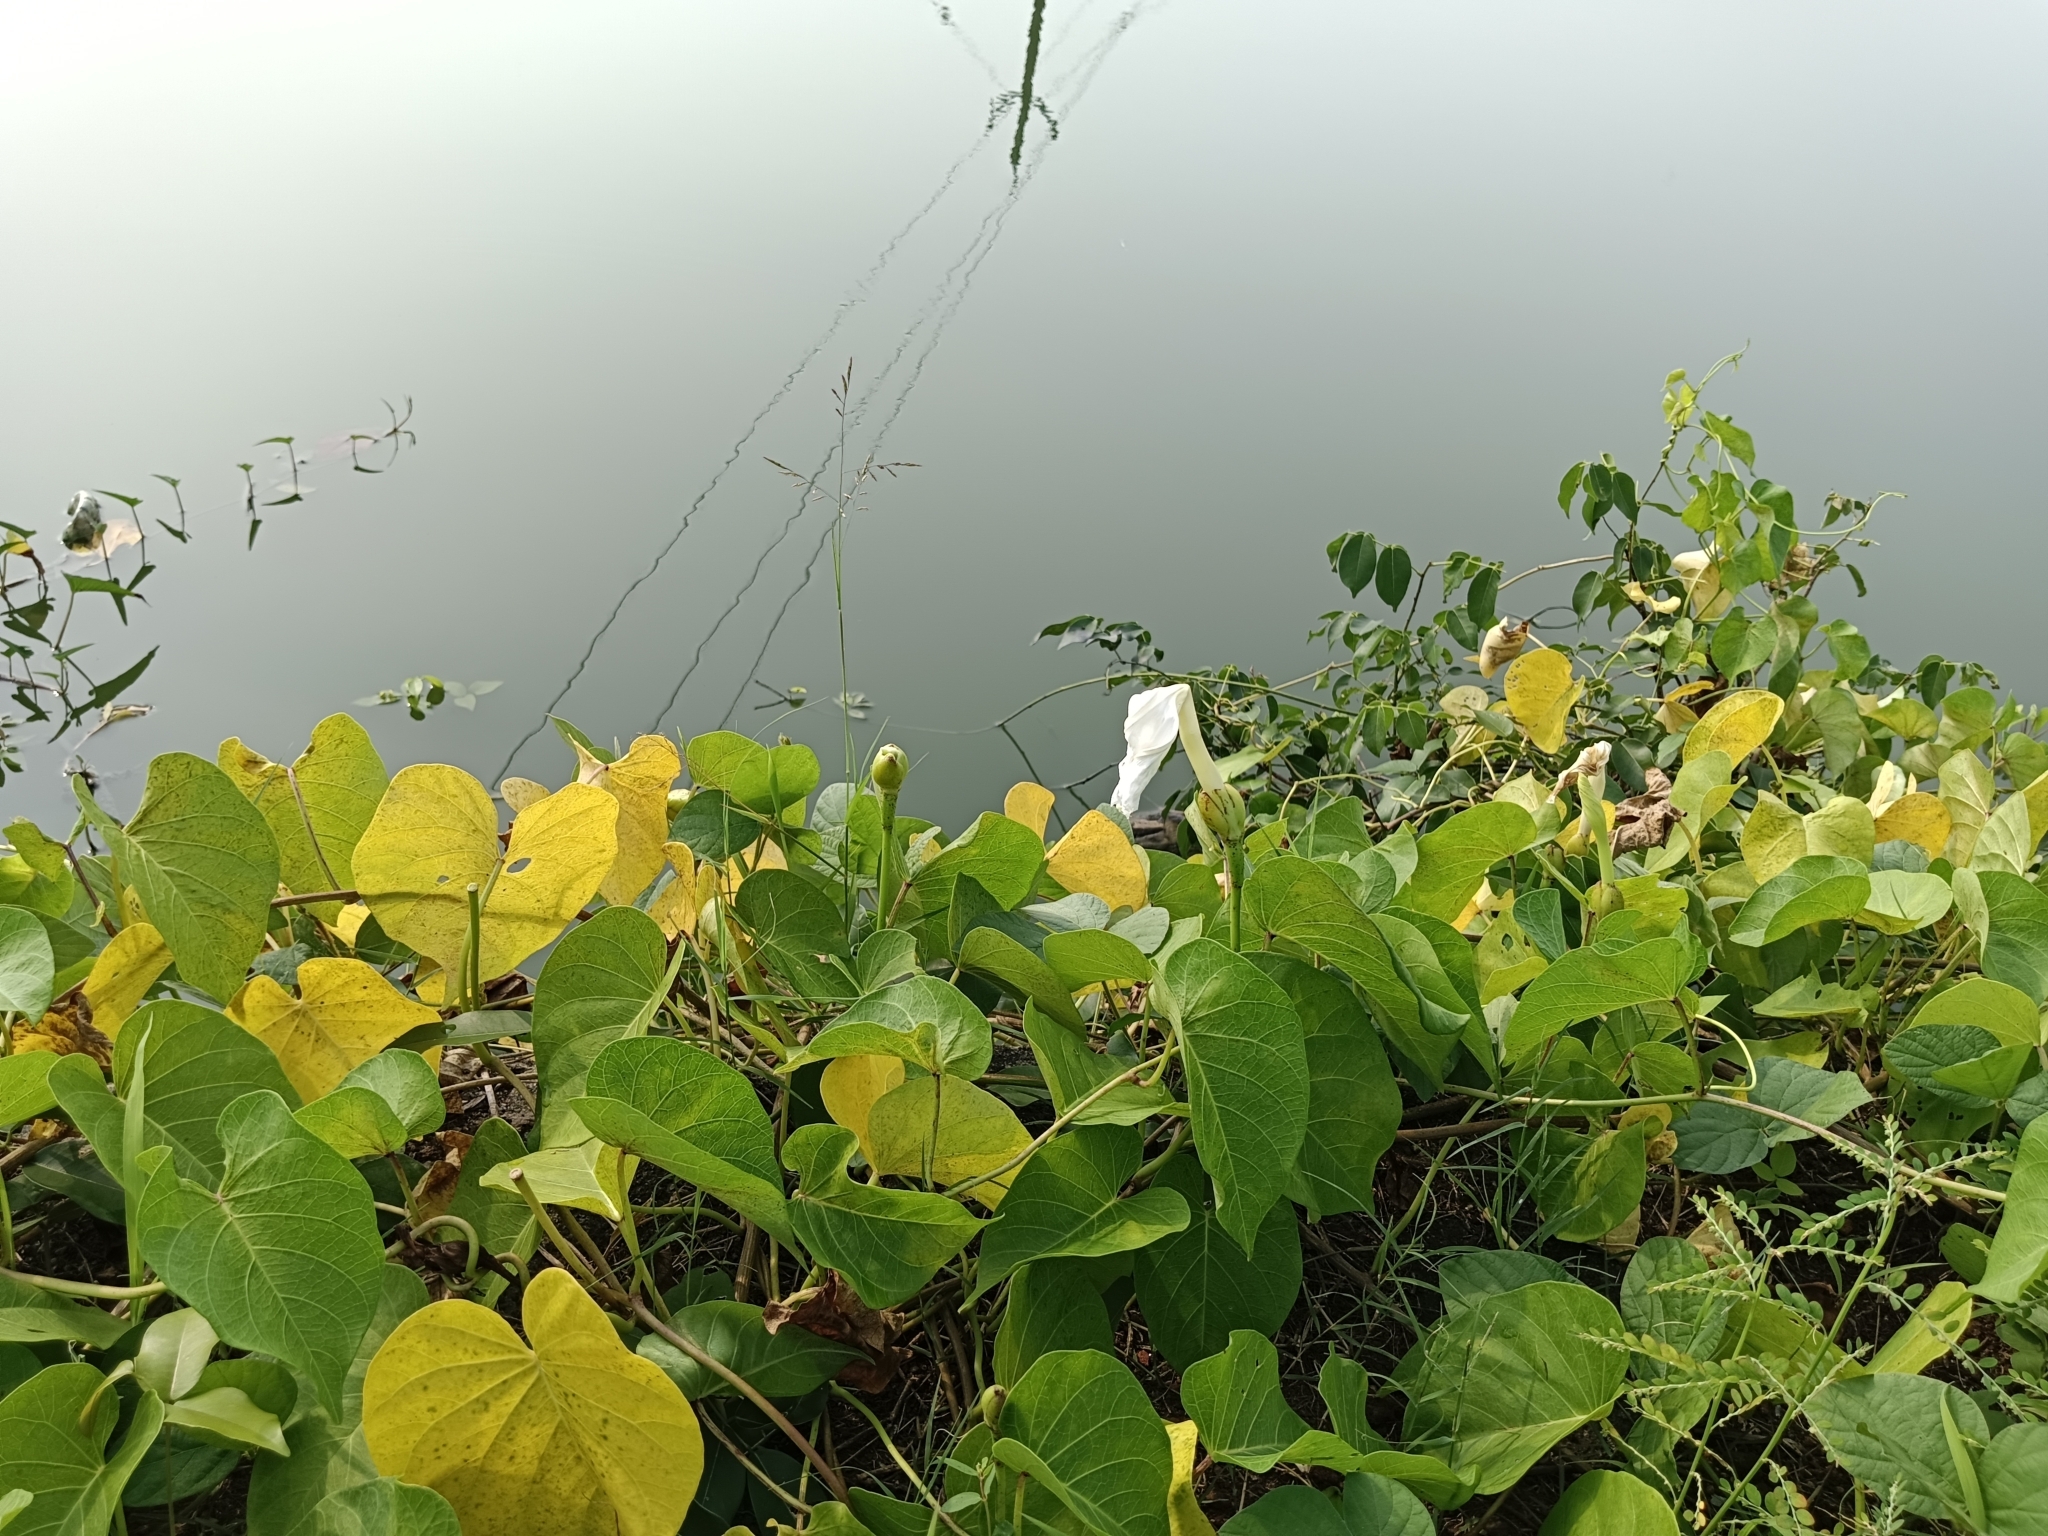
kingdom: Plantae
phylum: Tracheophyta
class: Magnoliopsida
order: Solanales
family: Convolvulaceae
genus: Ipomoea
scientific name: Ipomoea violacea
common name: Beach moonflower
